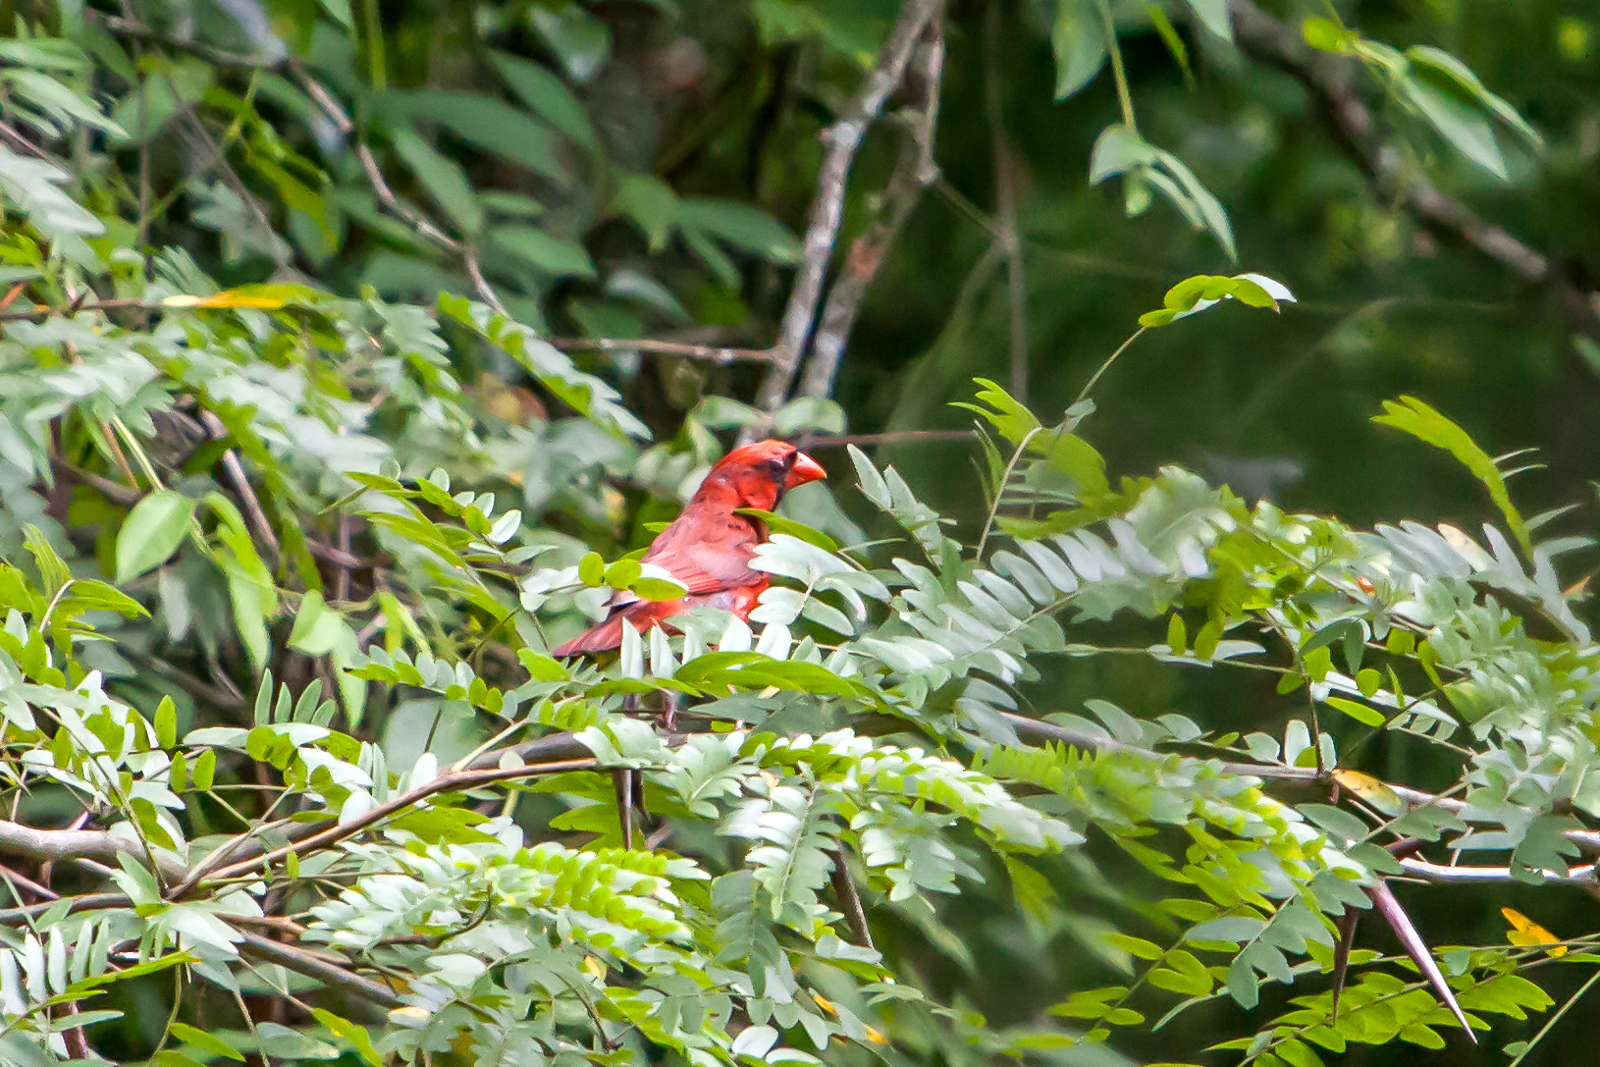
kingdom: Animalia
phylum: Chordata
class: Aves
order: Passeriformes
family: Cardinalidae
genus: Cardinalis
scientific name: Cardinalis cardinalis
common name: Northern cardinal
